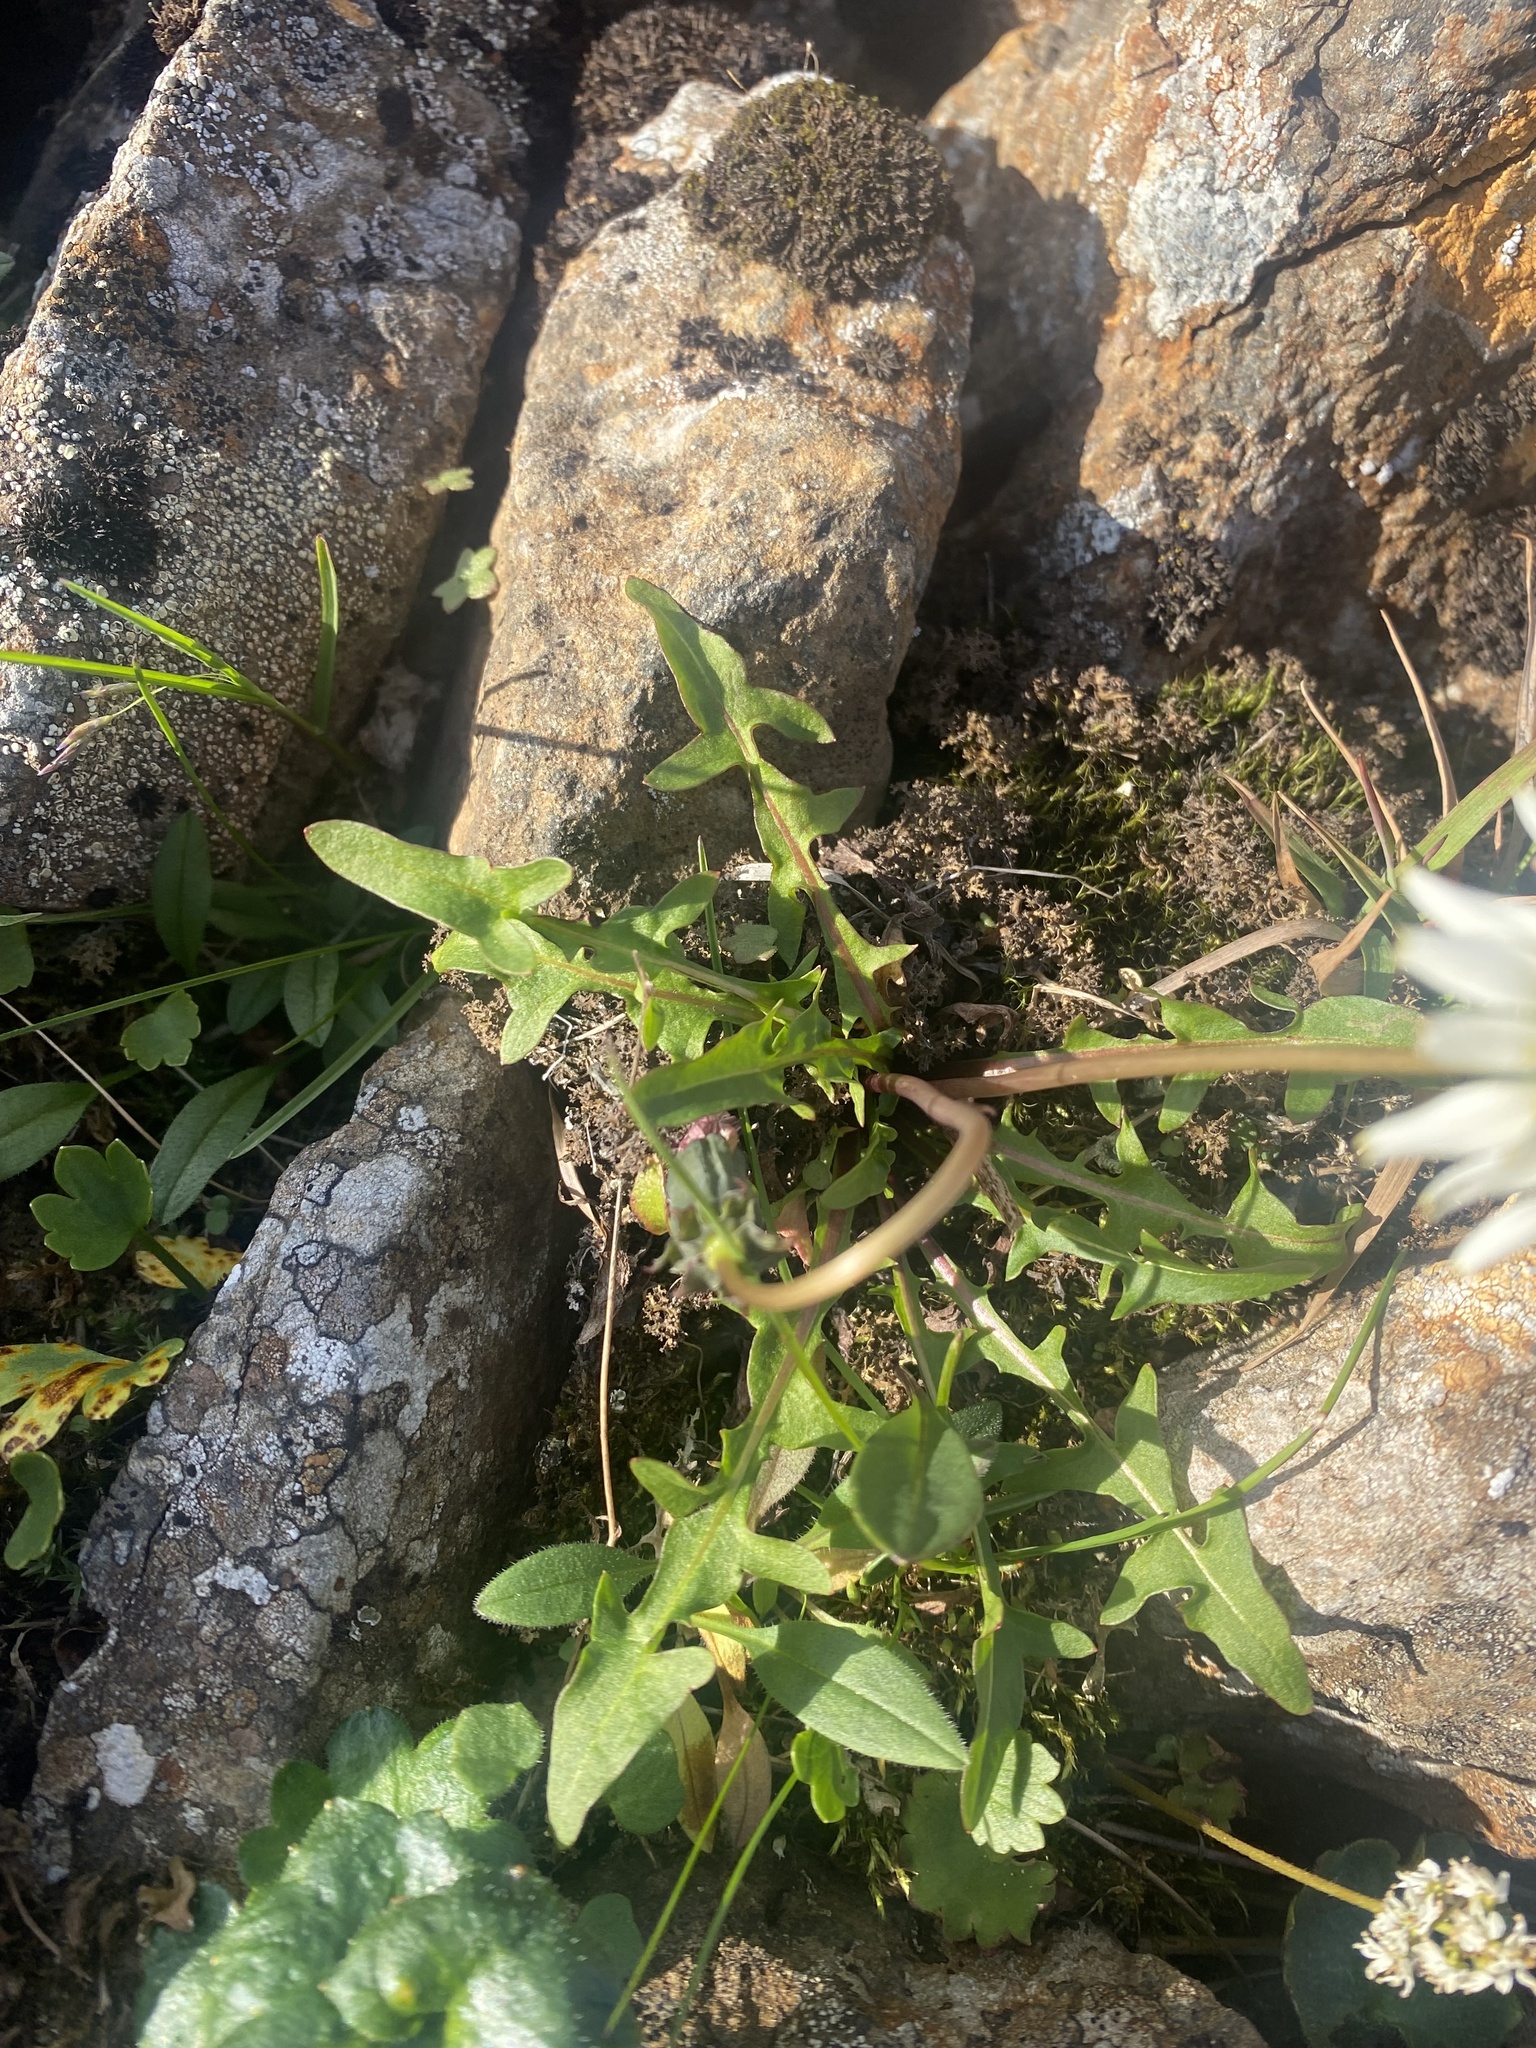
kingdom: Plantae
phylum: Tracheophyta
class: Magnoliopsida
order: Asterales
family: Asteraceae
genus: Taraxacum
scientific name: Taraxacum arcticum
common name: Arctic dandelion
